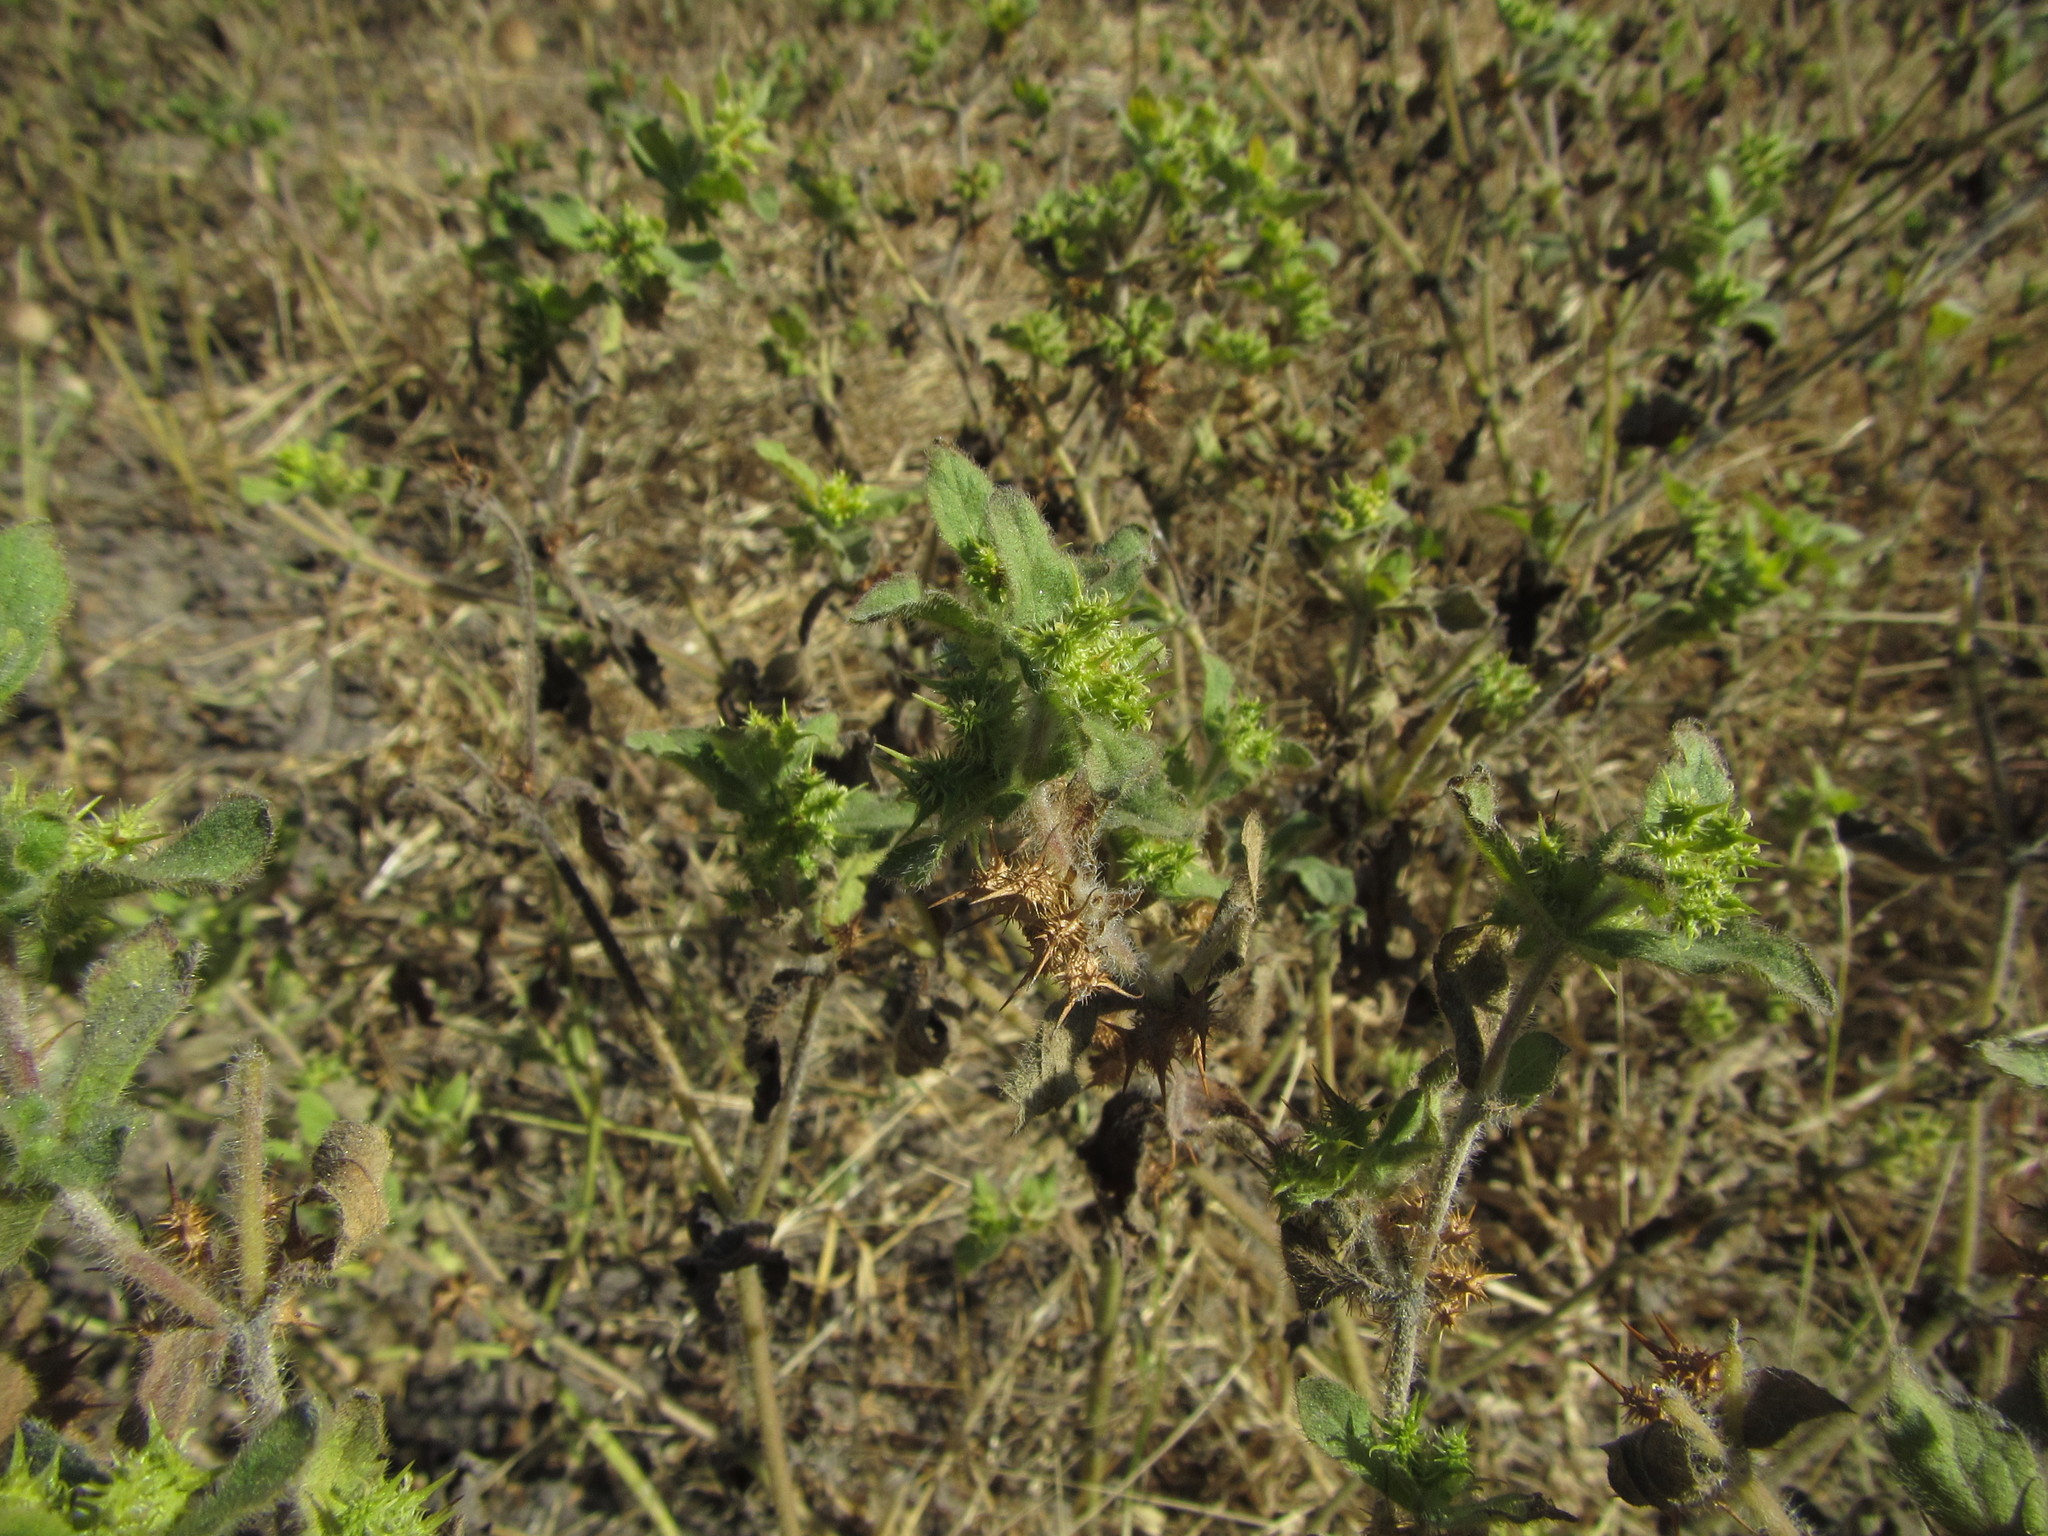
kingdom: Plantae
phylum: Tracheophyta
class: Magnoliopsida
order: Asterales
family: Asteraceae
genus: Acanthospermum
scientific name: Acanthospermum hispidum
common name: Hispid starbur
